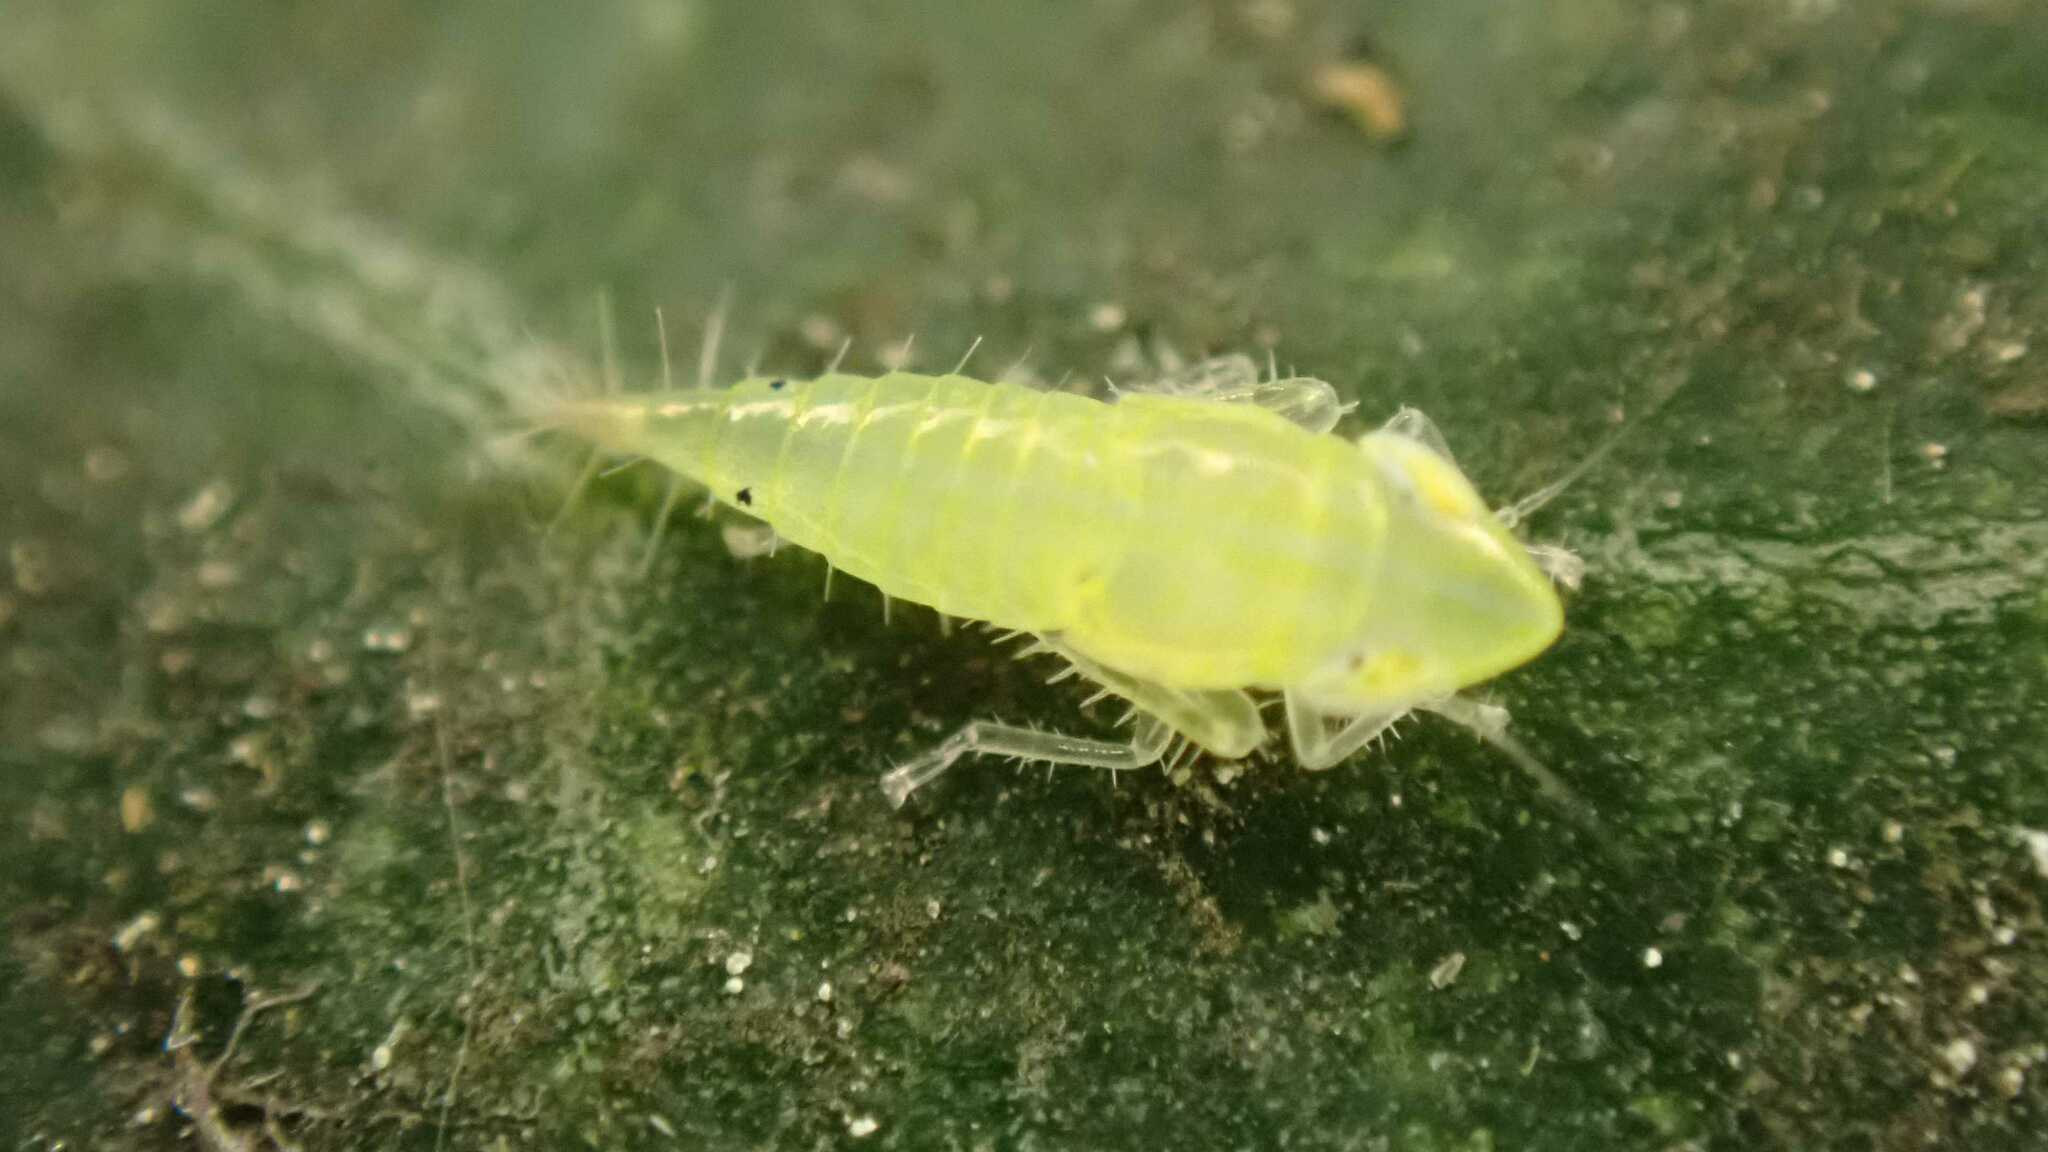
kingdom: Animalia
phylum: Arthropoda
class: Insecta
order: Hemiptera
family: Cicadellidae
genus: Synophropsis
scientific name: Synophropsis lauri
